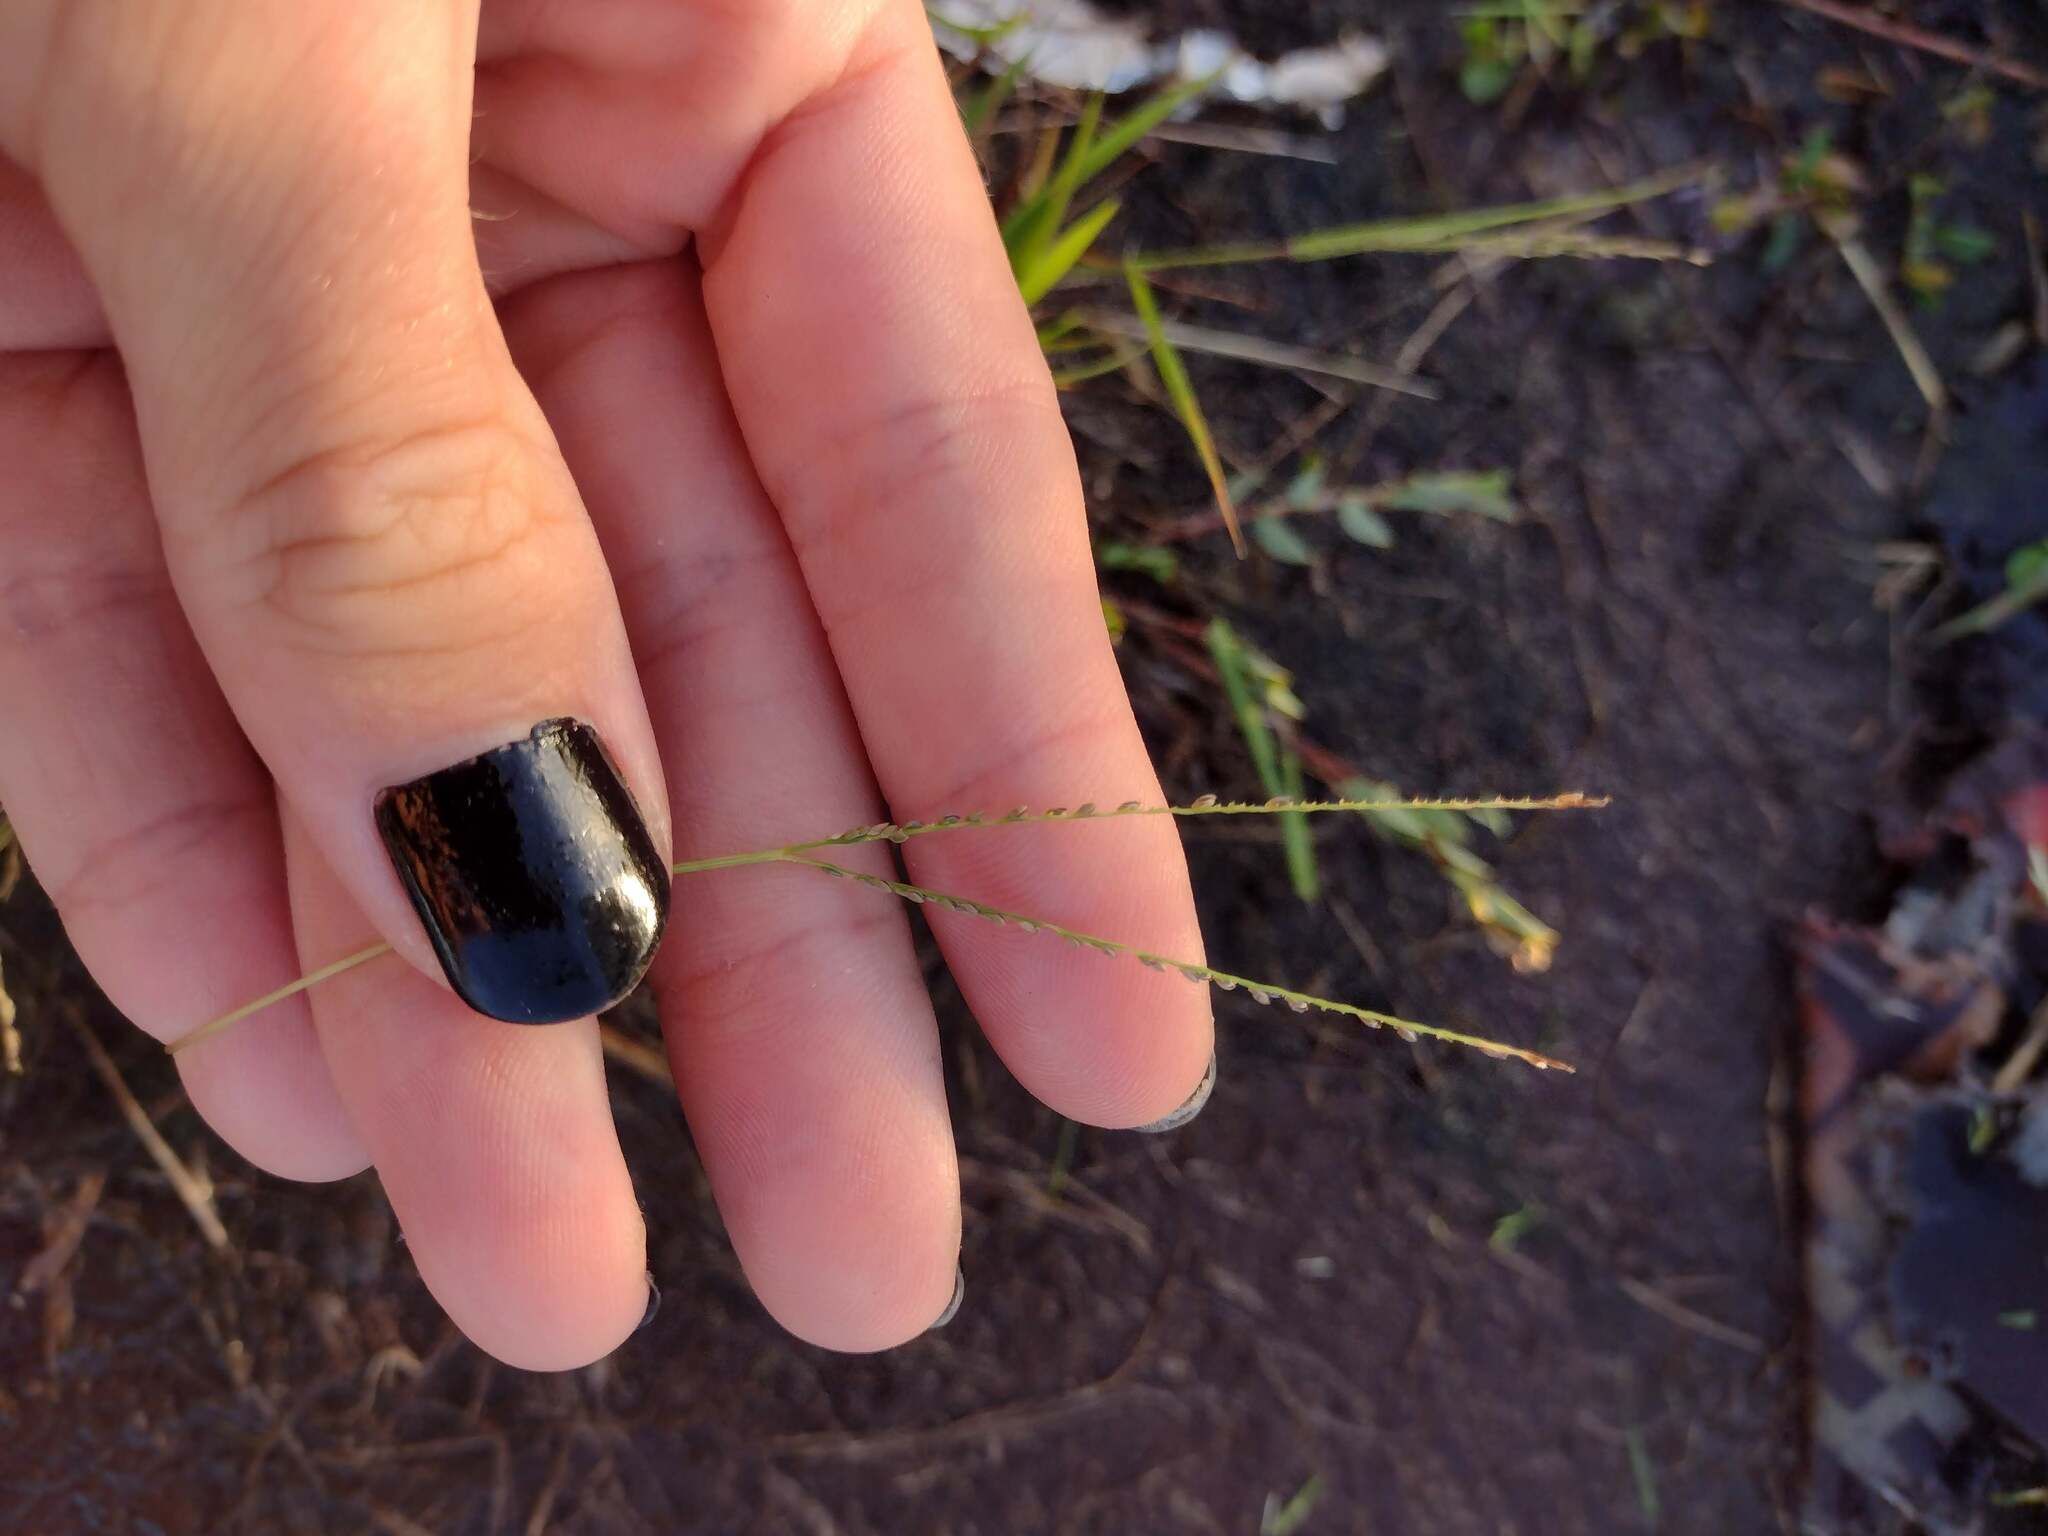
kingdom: Plantae
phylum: Tracheophyta
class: Liliopsida
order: Poales
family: Poaceae
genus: Digitaria
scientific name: Digitaria stricta
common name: Crabgrass
